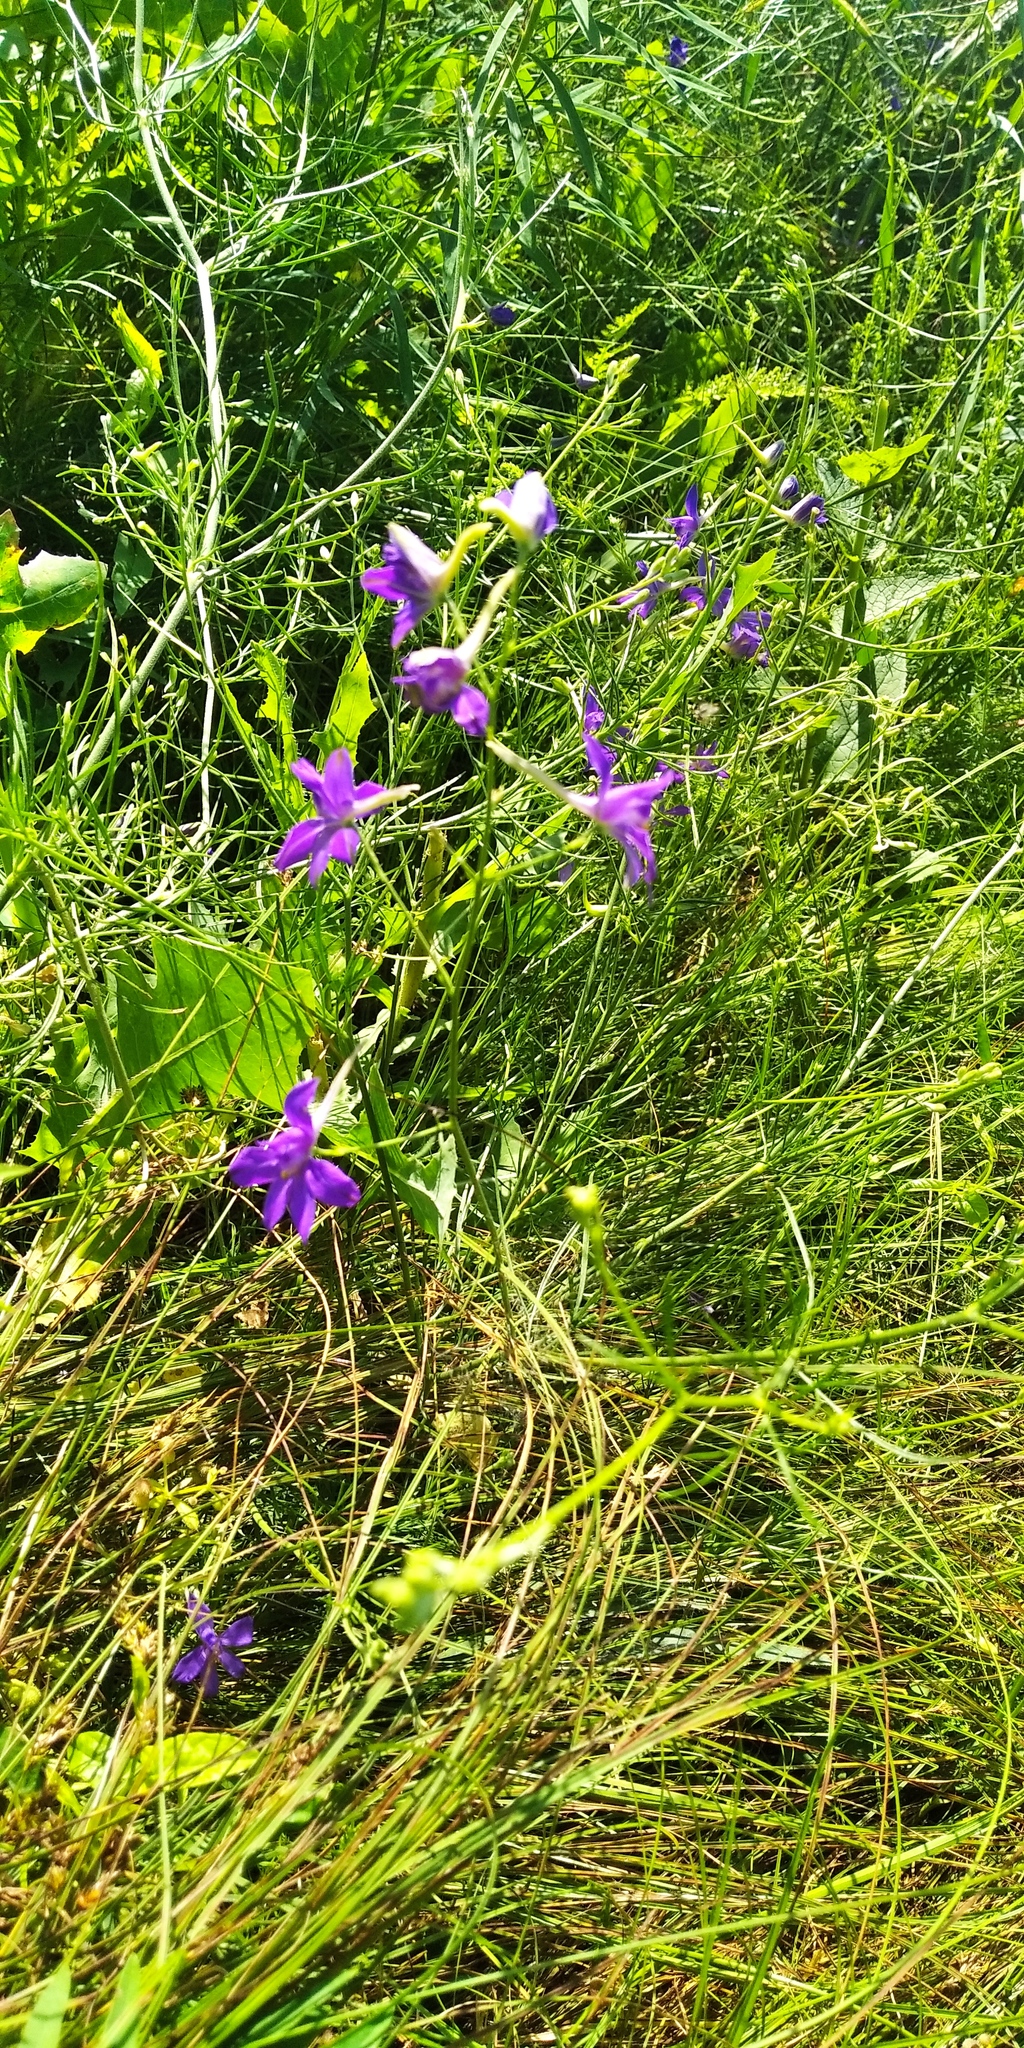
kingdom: Plantae
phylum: Tracheophyta
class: Magnoliopsida
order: Ranunculales
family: Ranunculaceae
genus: Delphinium
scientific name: Delphinium consolida
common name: Branching larkspur
